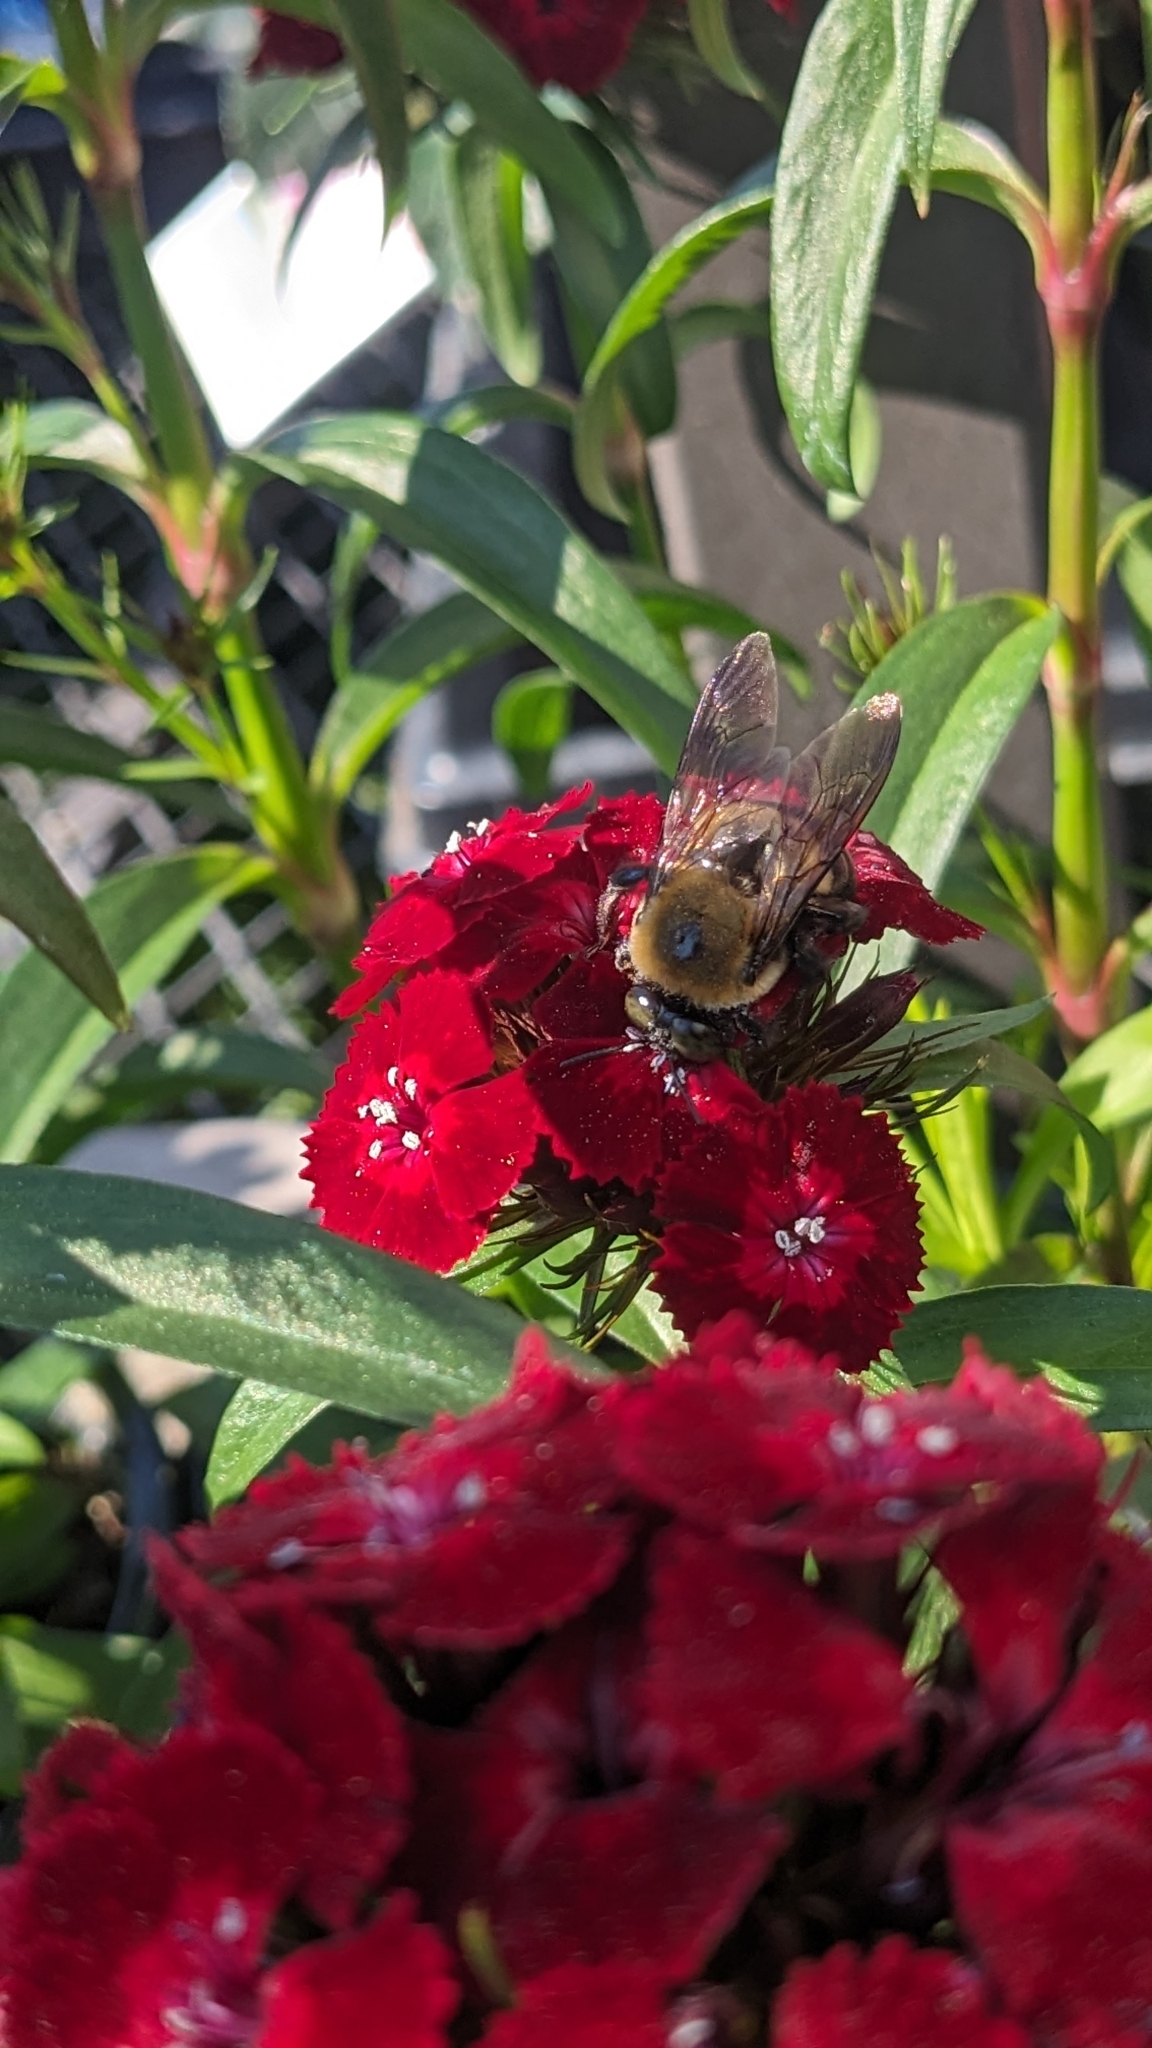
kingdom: Animalia
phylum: Arthropoda
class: Insecta
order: Hymenoptera
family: Apidae
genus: Xylocopa
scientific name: Xylocopa virginica
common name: Carpenter bee
